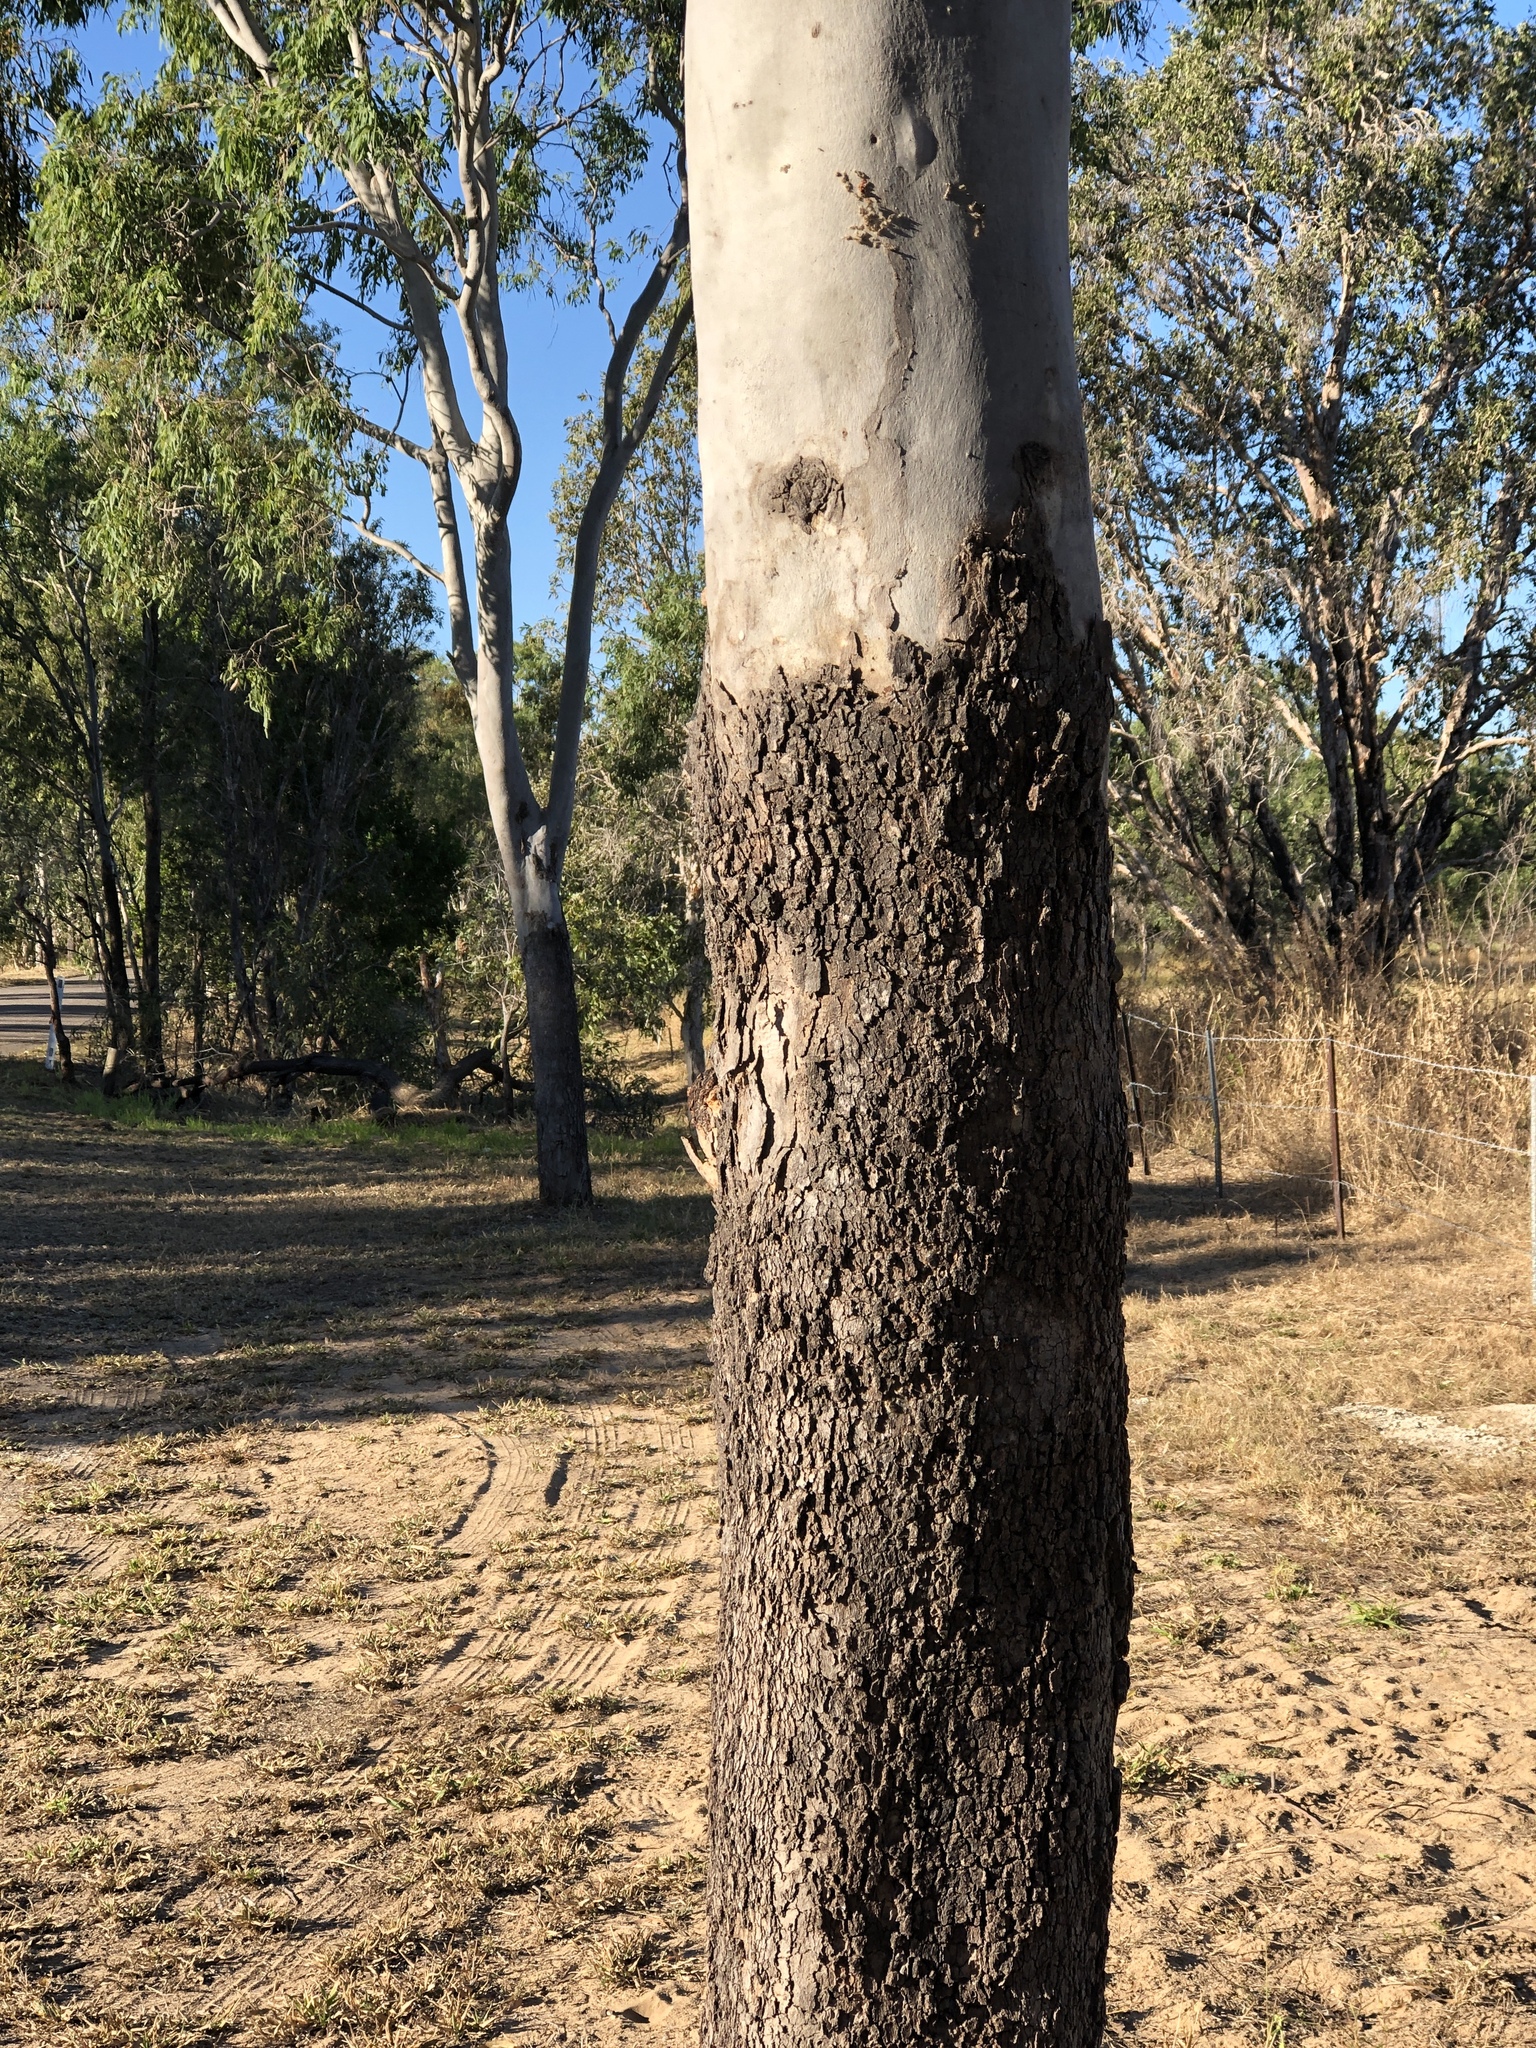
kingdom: Plantae
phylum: Tracheophyta
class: Magnoliopsida
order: Myrtales
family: Myrtaceae
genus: Corymbia
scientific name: Corymbia tessellaris
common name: Carbeen
